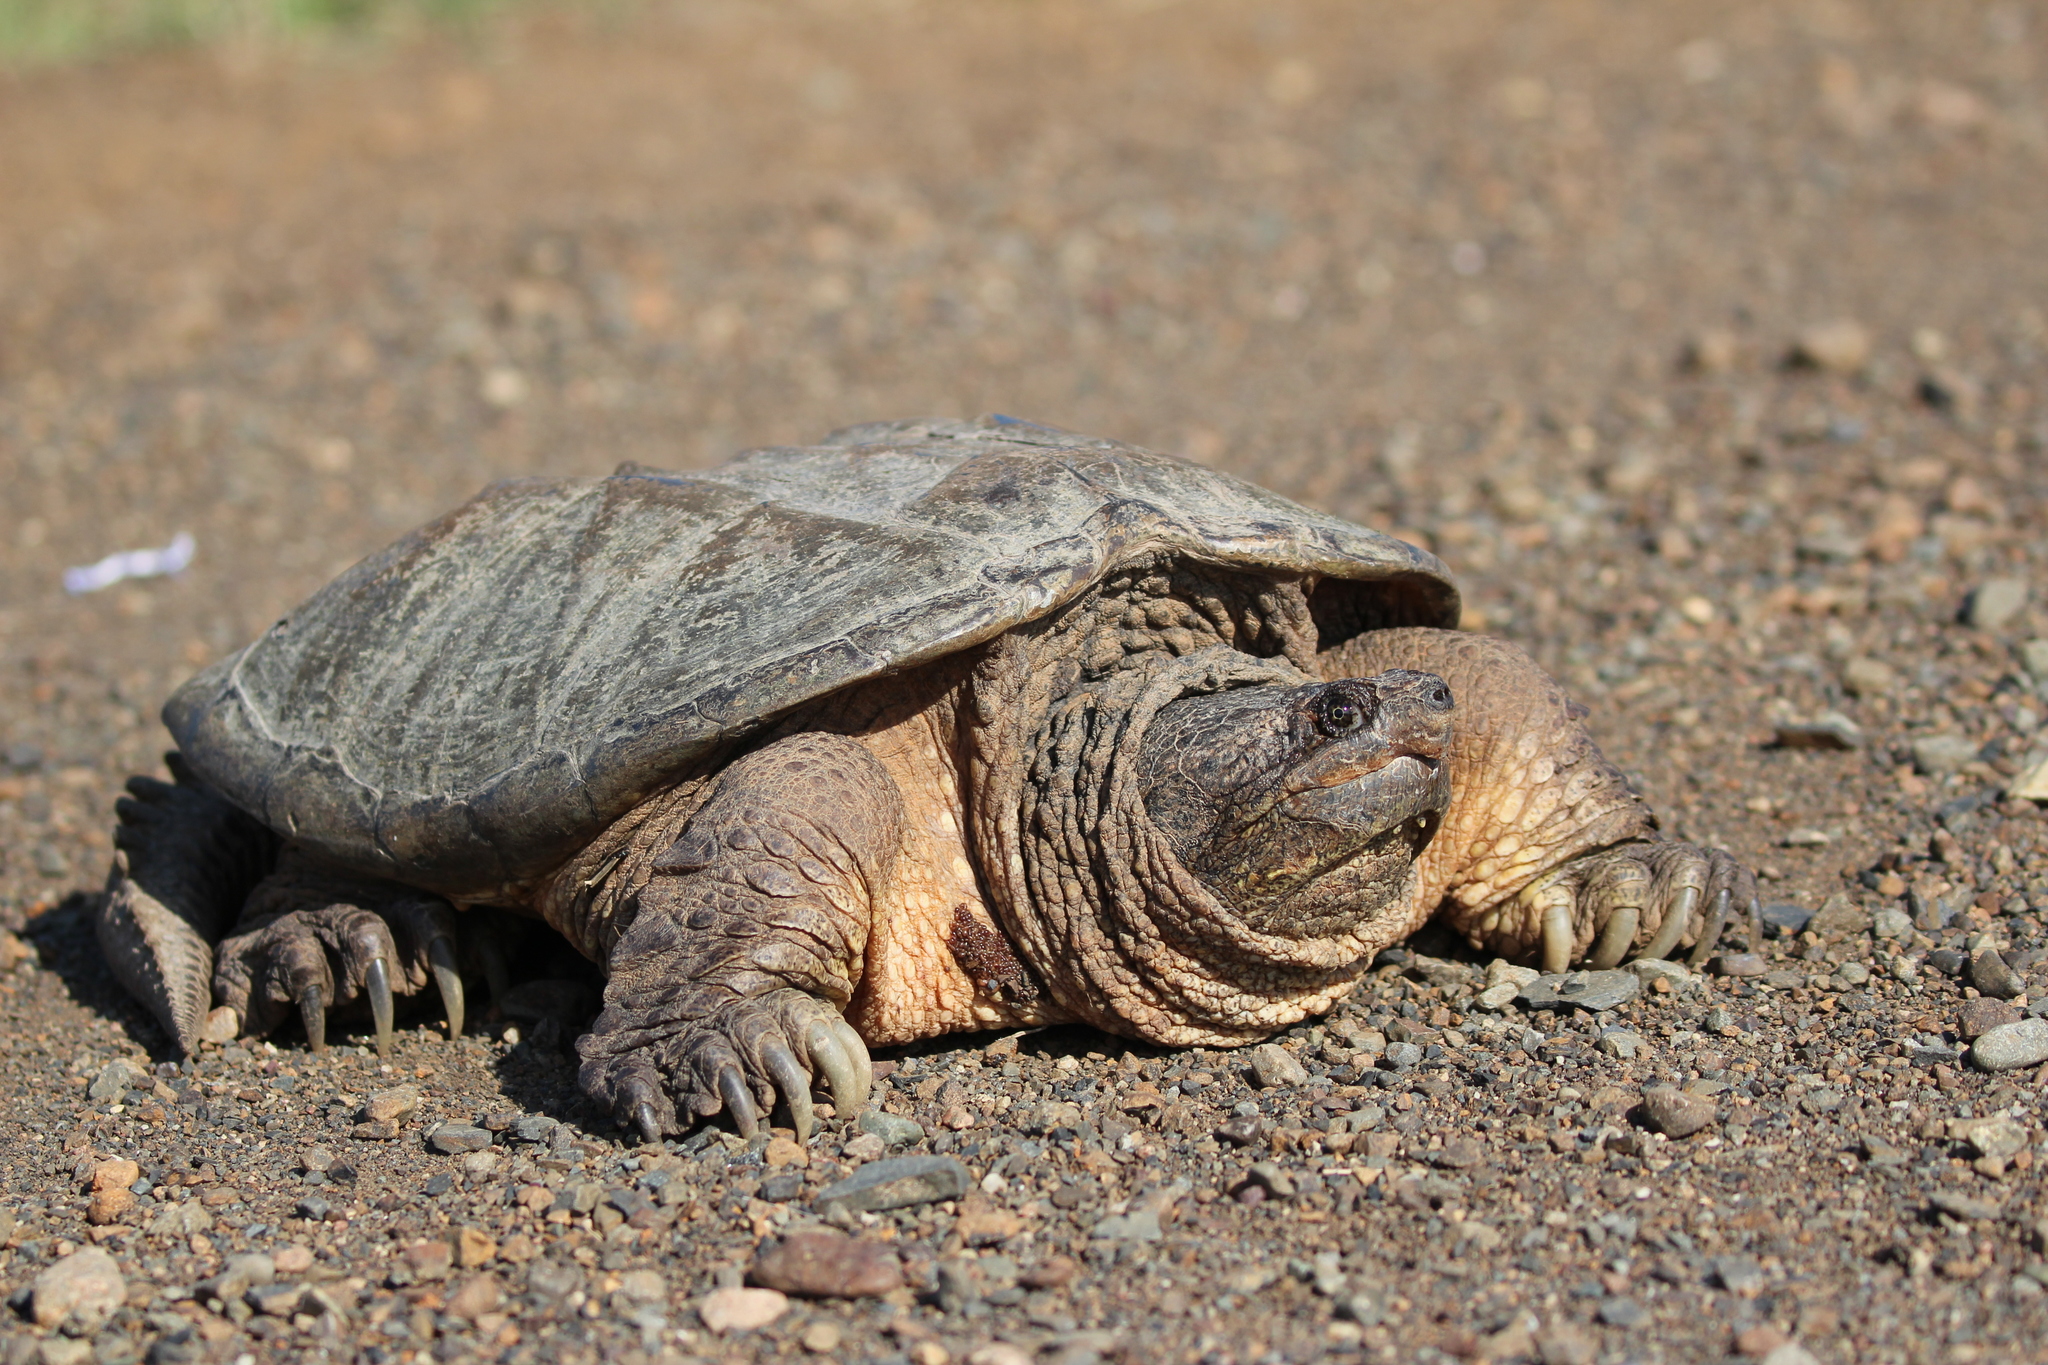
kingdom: Animalia
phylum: Chordata
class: Testudines
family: Chelydridae
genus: Chelydra
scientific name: Chelydra serpentina
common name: Common snapping turtle
